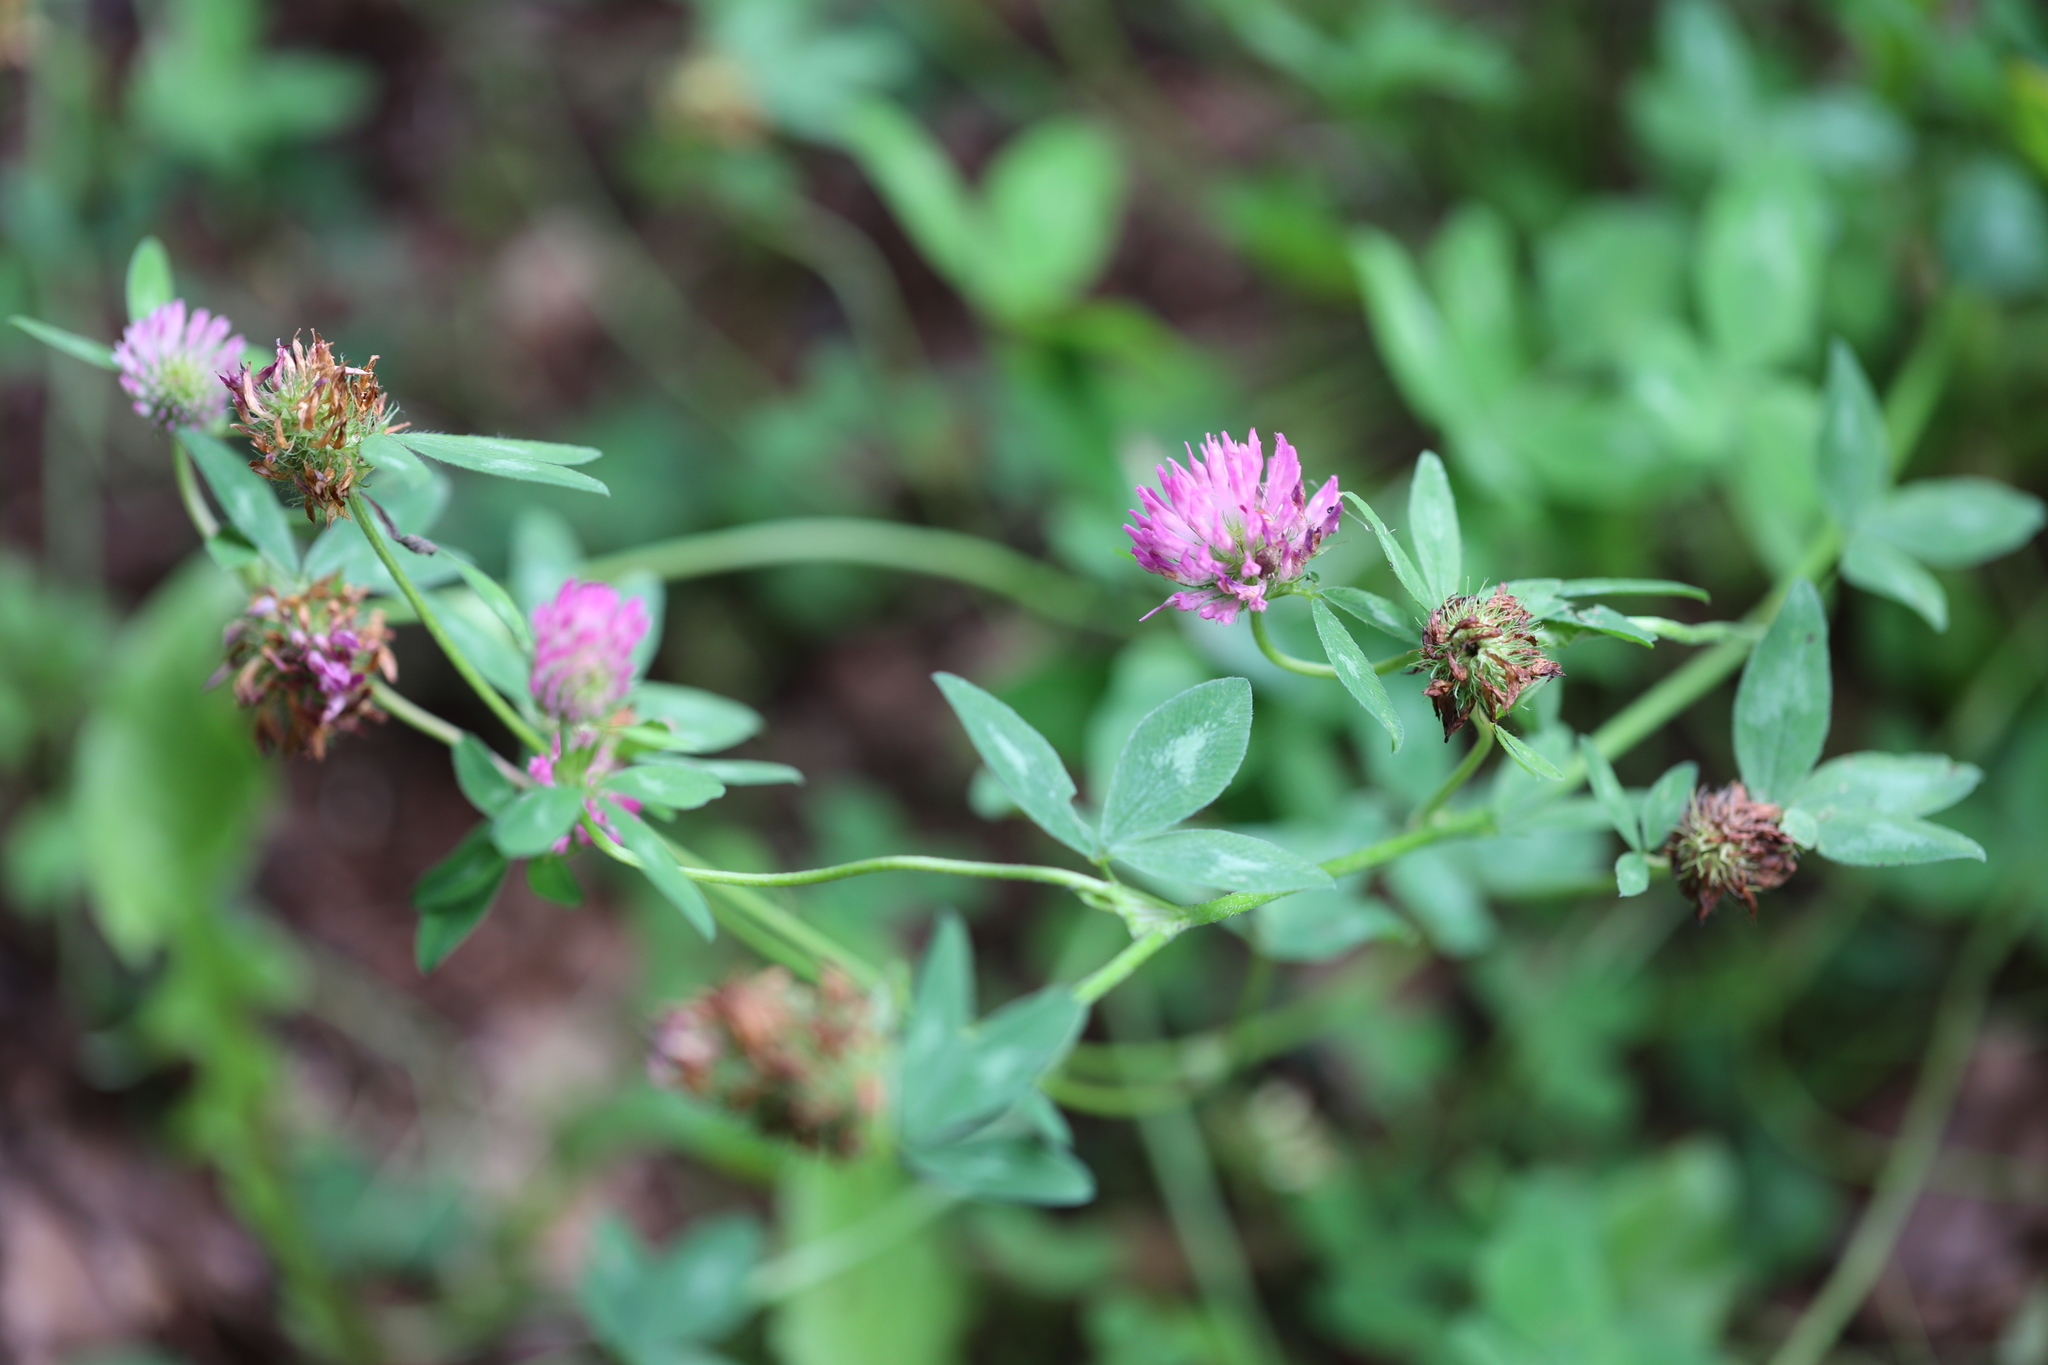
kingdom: Plantae
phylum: Tracheophyta
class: Magnoliopsida
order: Fabales
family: Fabaceae
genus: Trifolium
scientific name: Trifolium pratense
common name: Red clover
